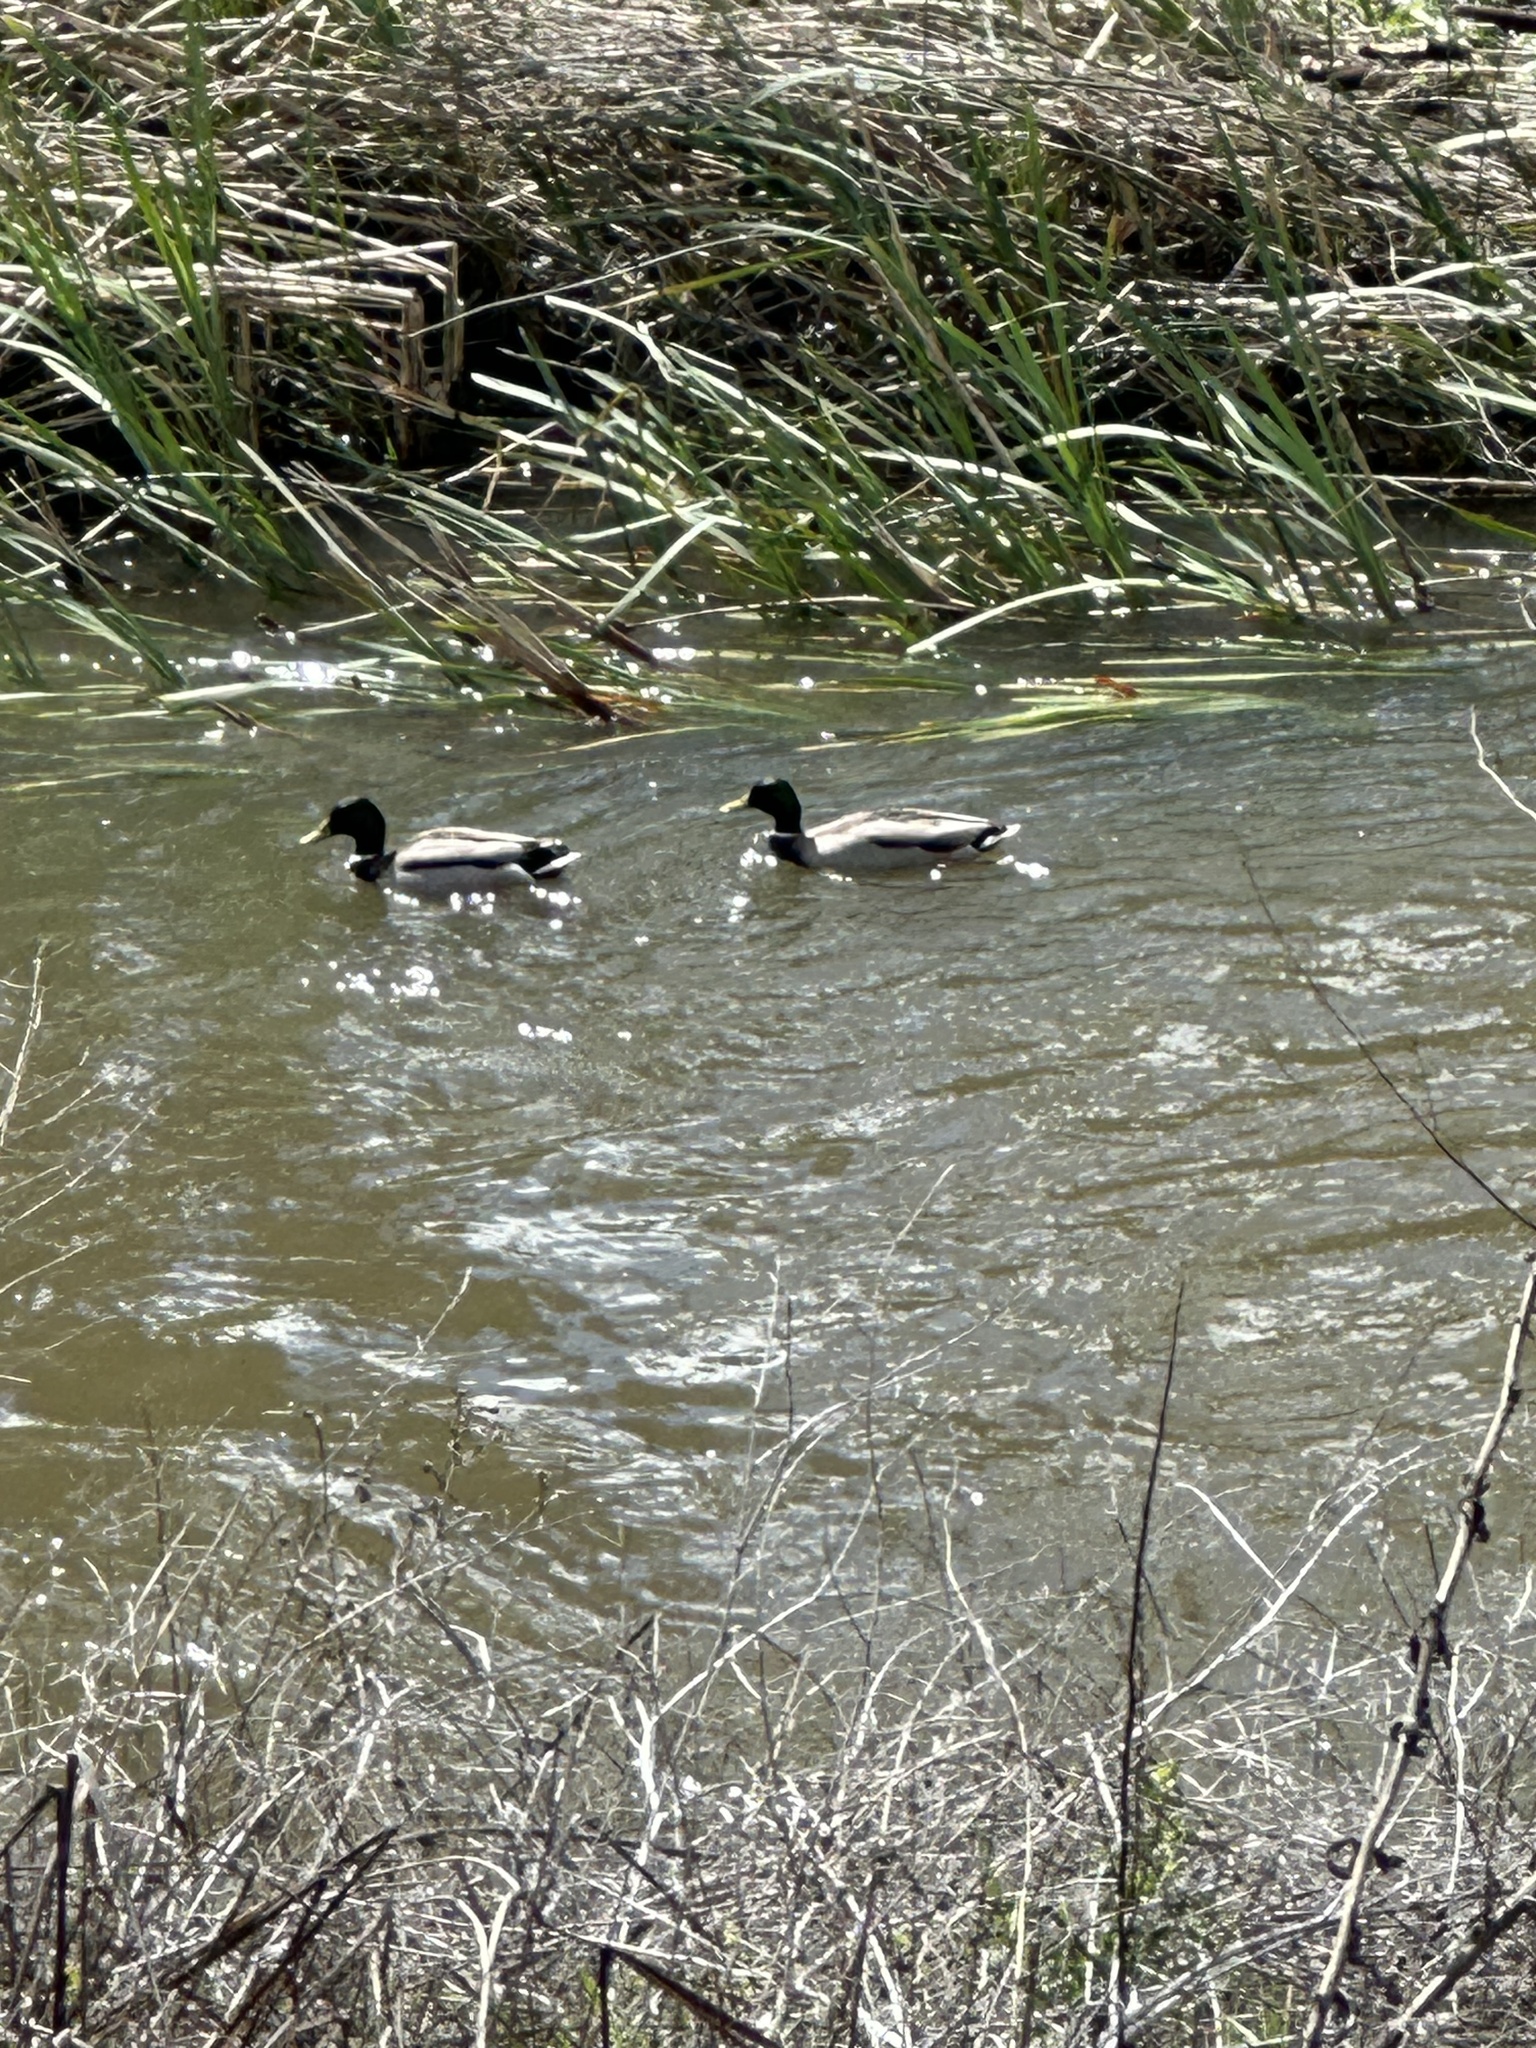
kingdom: Animalia
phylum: Chordata
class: Aves
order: Anseriformes
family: Anatidae
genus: Anas
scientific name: Anas platyrhynchos
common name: Mallard
